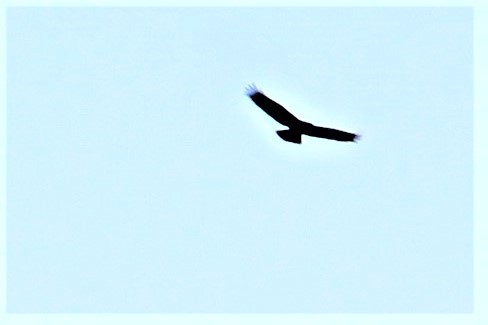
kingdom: Animalia
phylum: Chordata
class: Aves
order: Accipitriformes
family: Accipitridae
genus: Aquila
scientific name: Aquila chrysaetos
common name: Golden eagle
